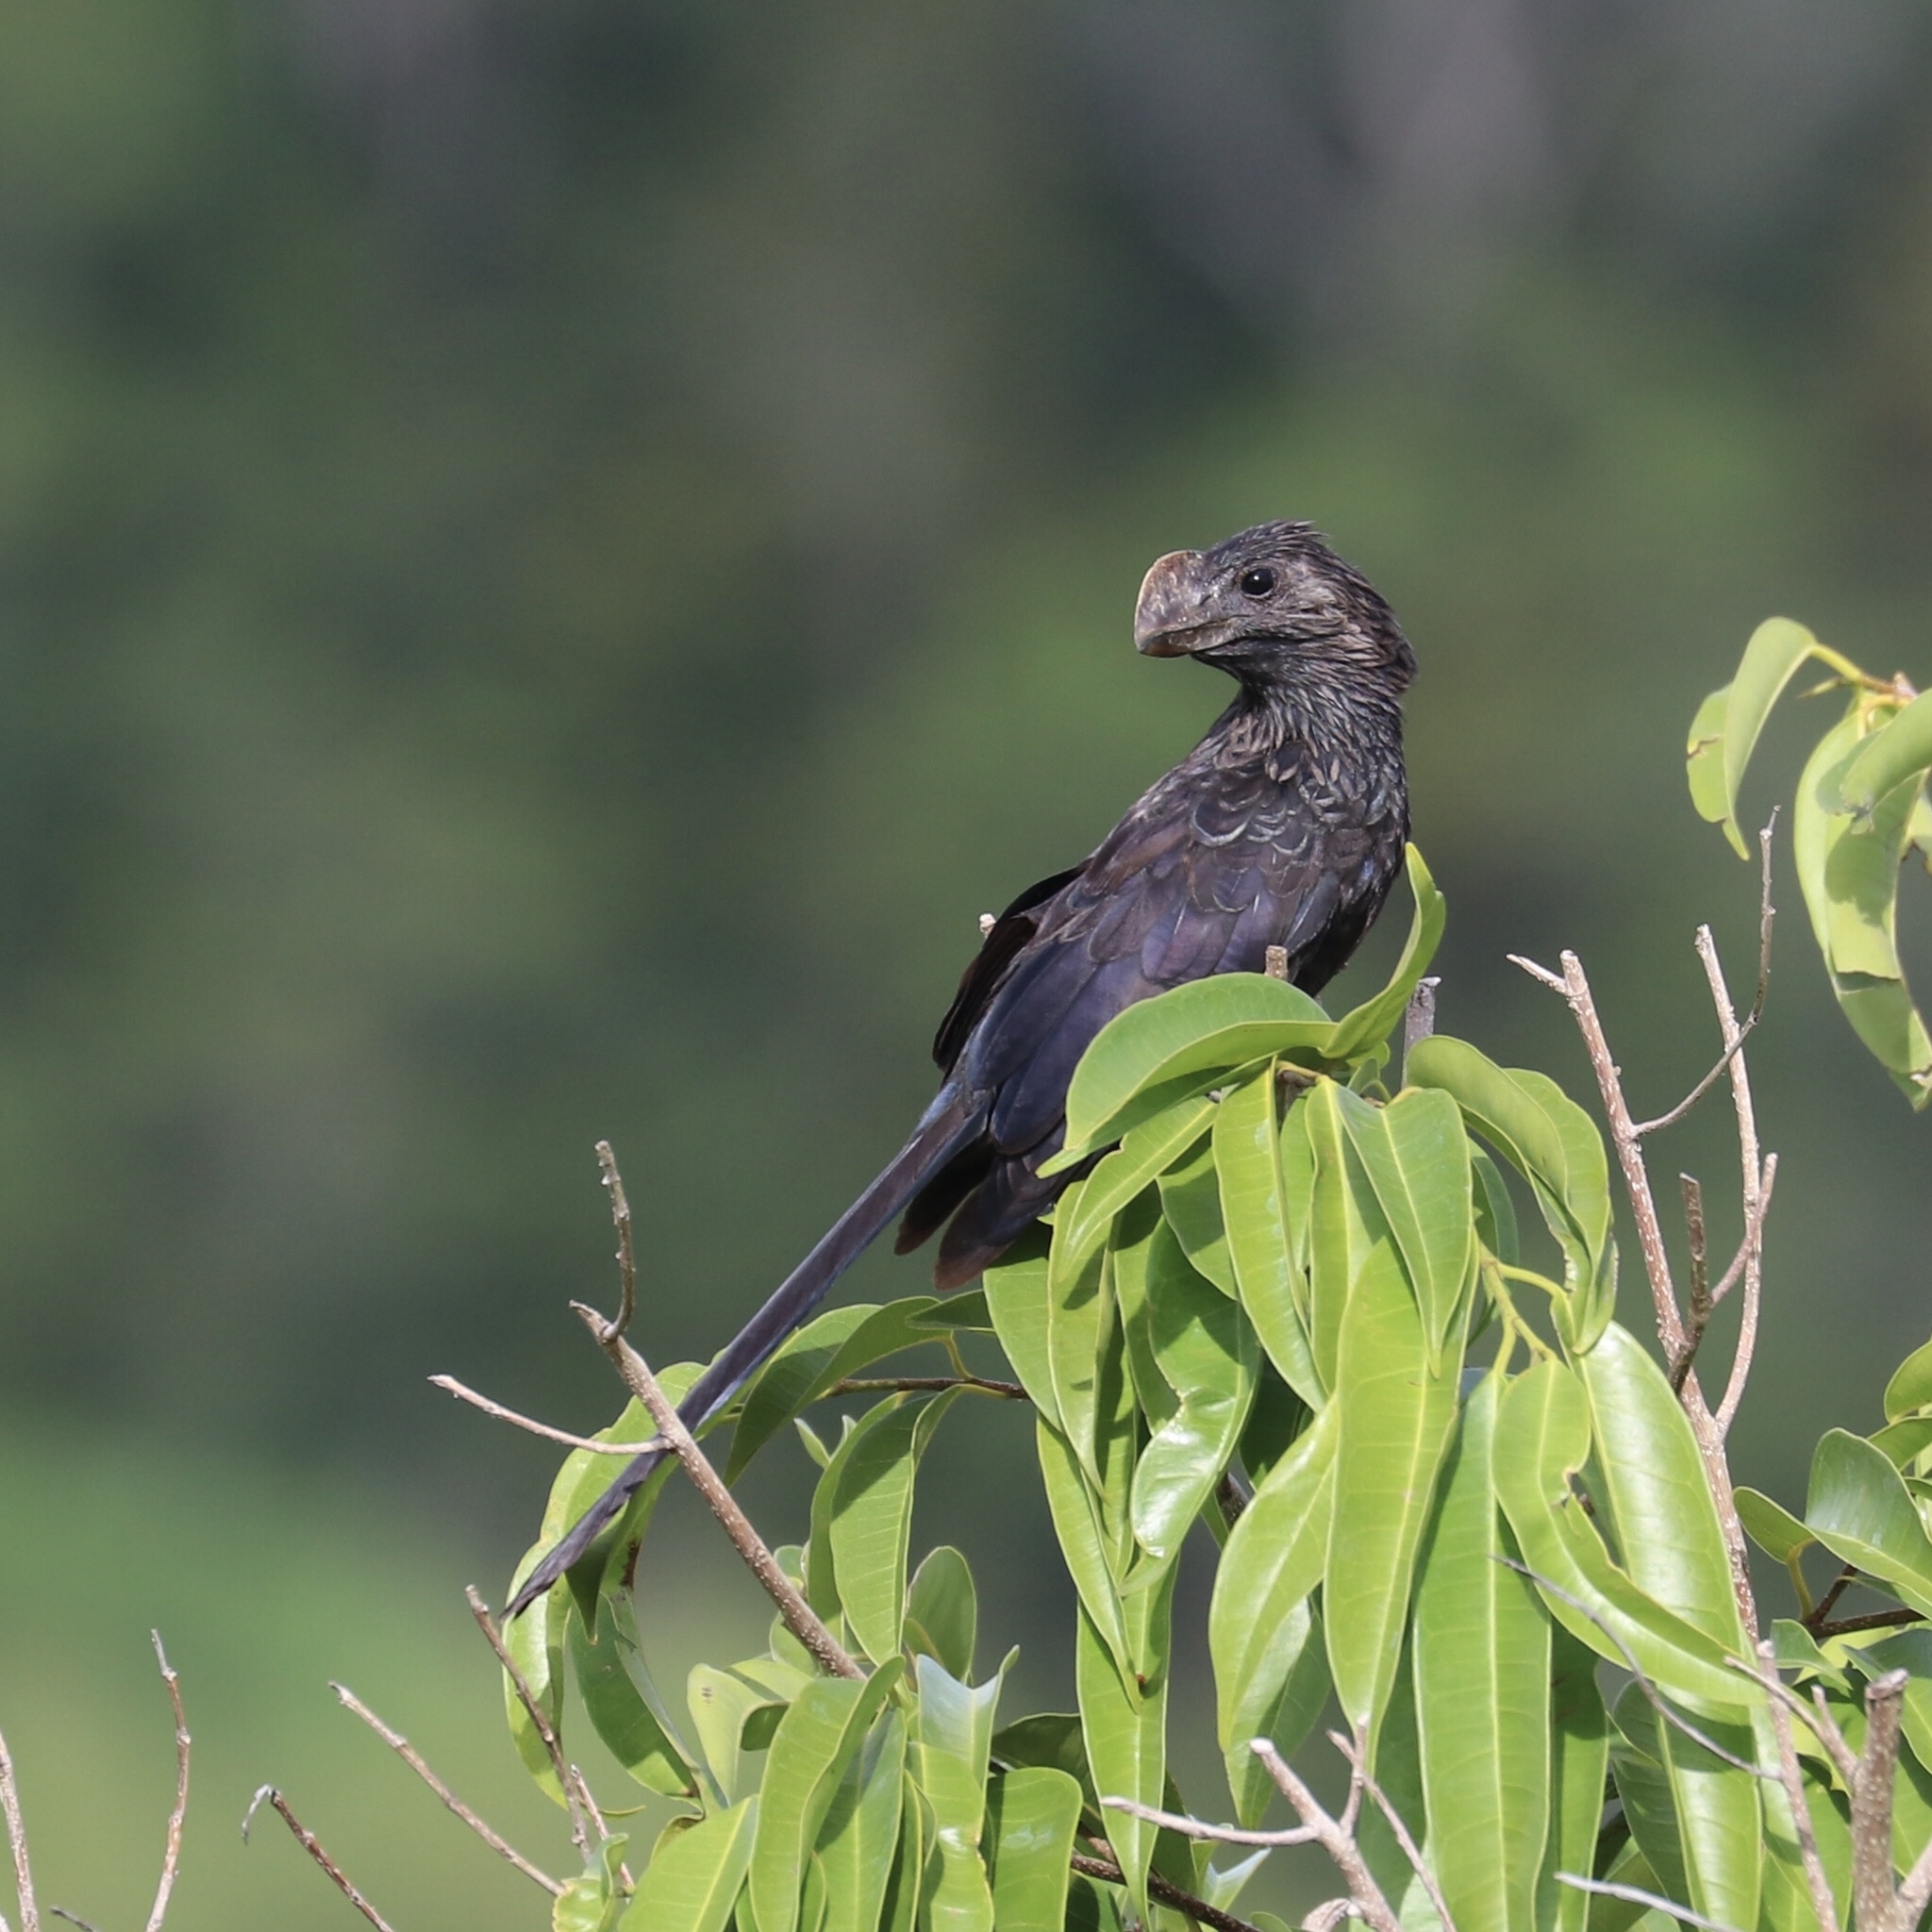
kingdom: Animalia
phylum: Chordata
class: Aves
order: Cuculiformes
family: Cuculidae
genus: Crotophaga
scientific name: Crotophaga ani
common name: Smooth-billed ani
